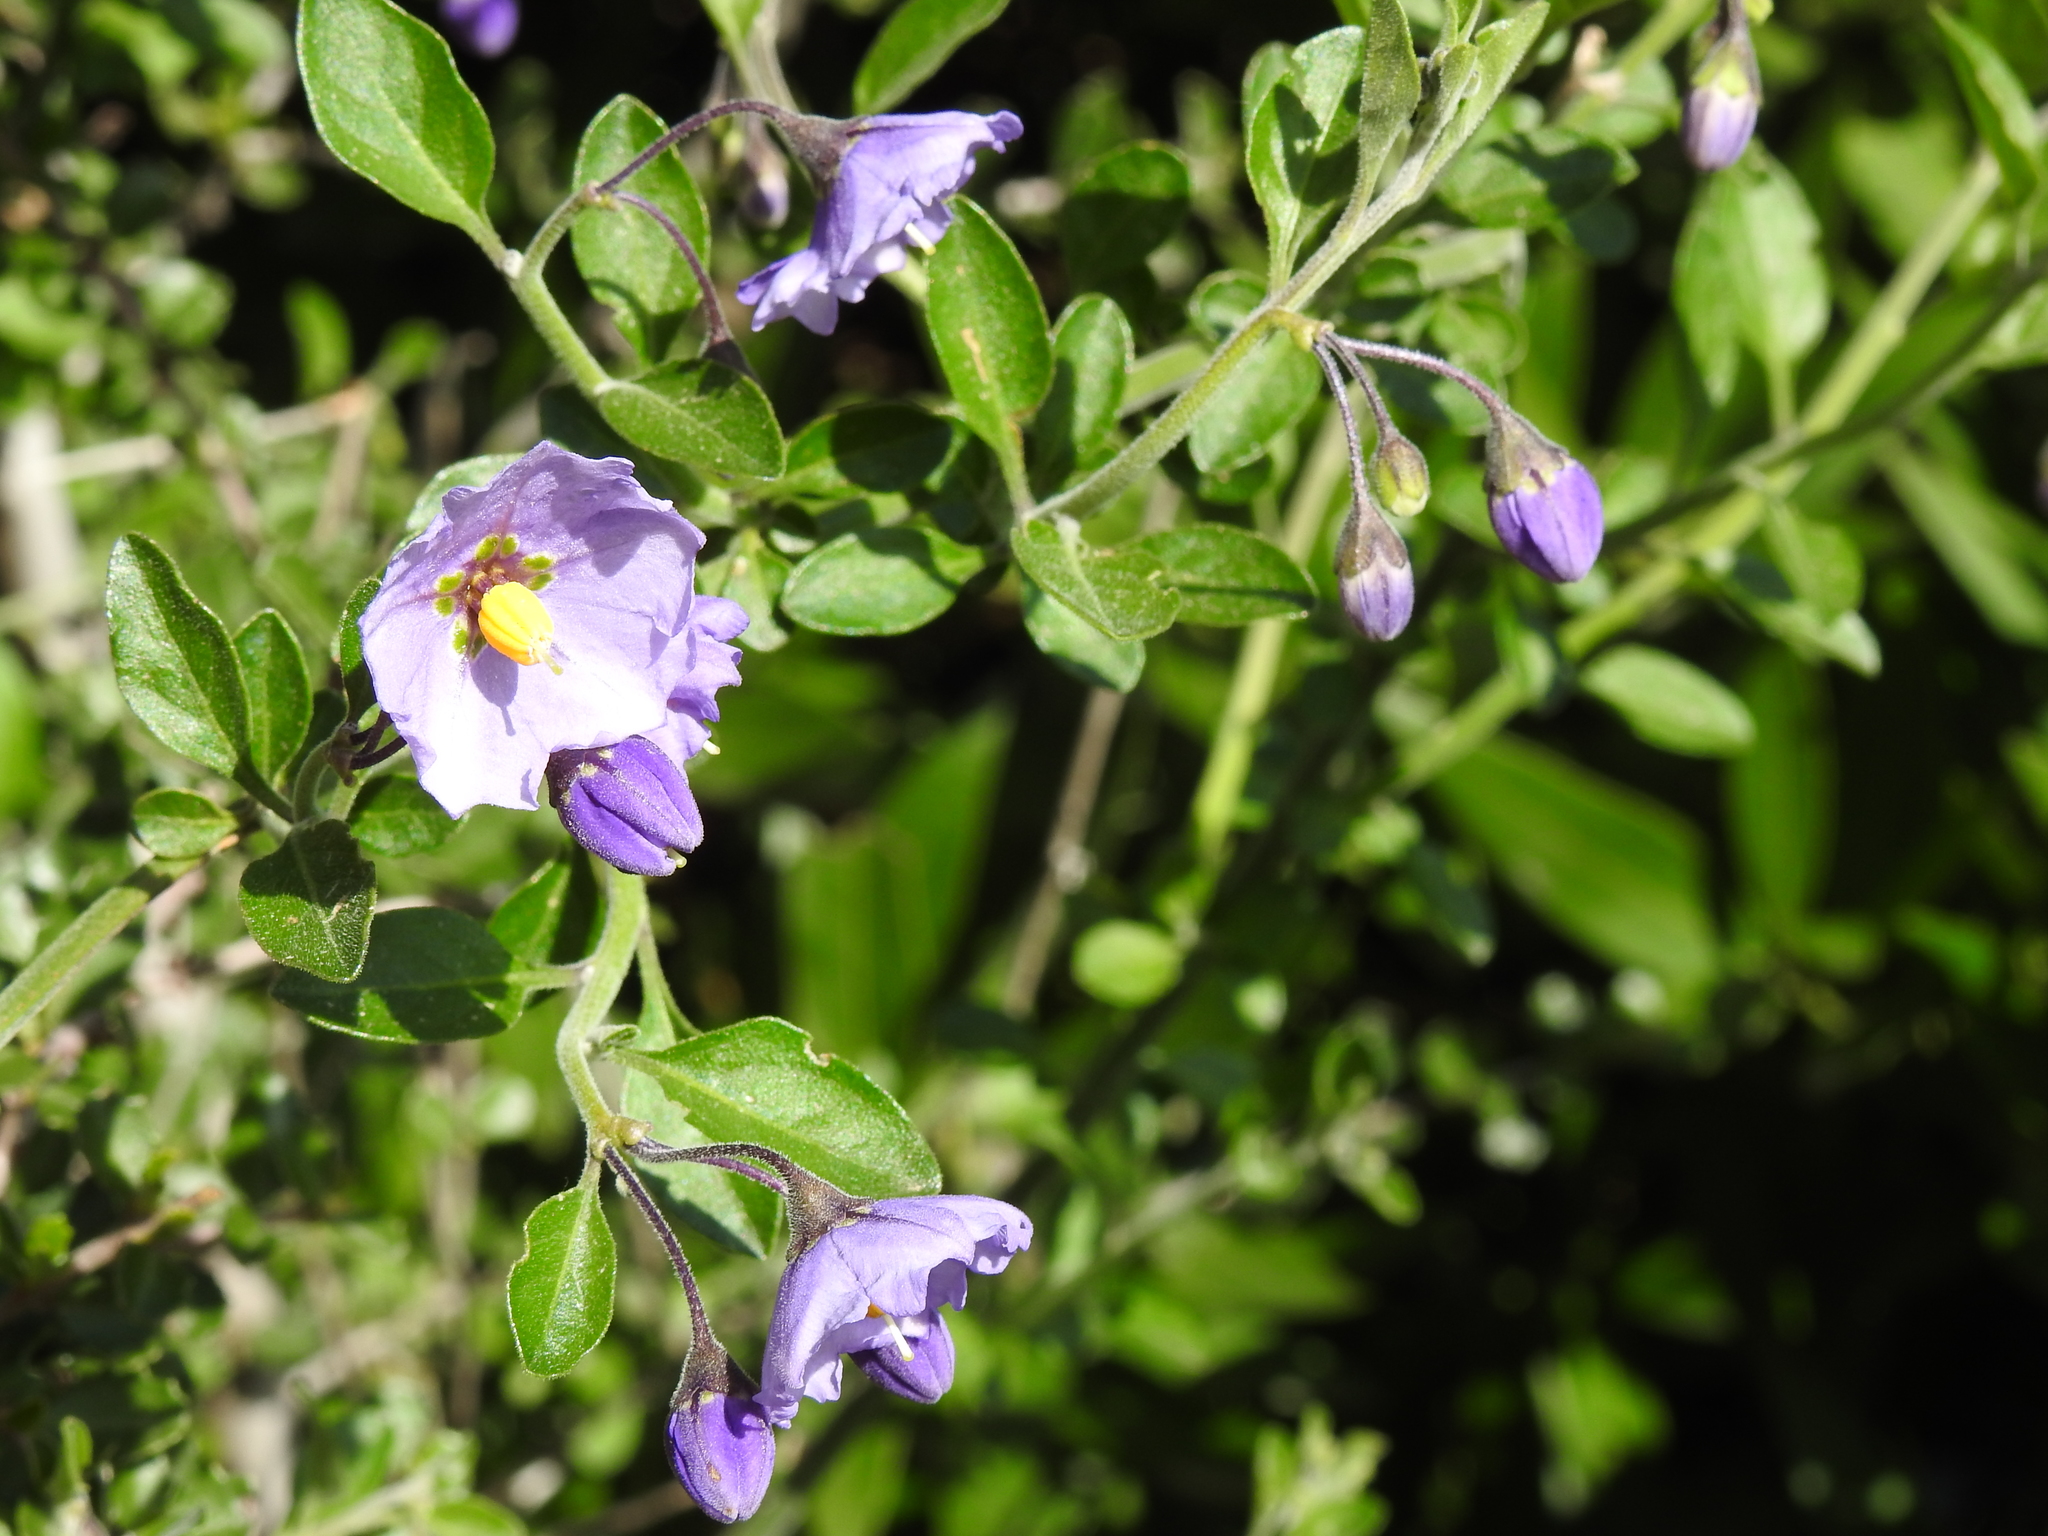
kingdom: Plantae
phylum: Tracheophyta
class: Magnoliopsida
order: Solanales
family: Solanaceae
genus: Solanum
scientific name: Solanum umbelliferum
